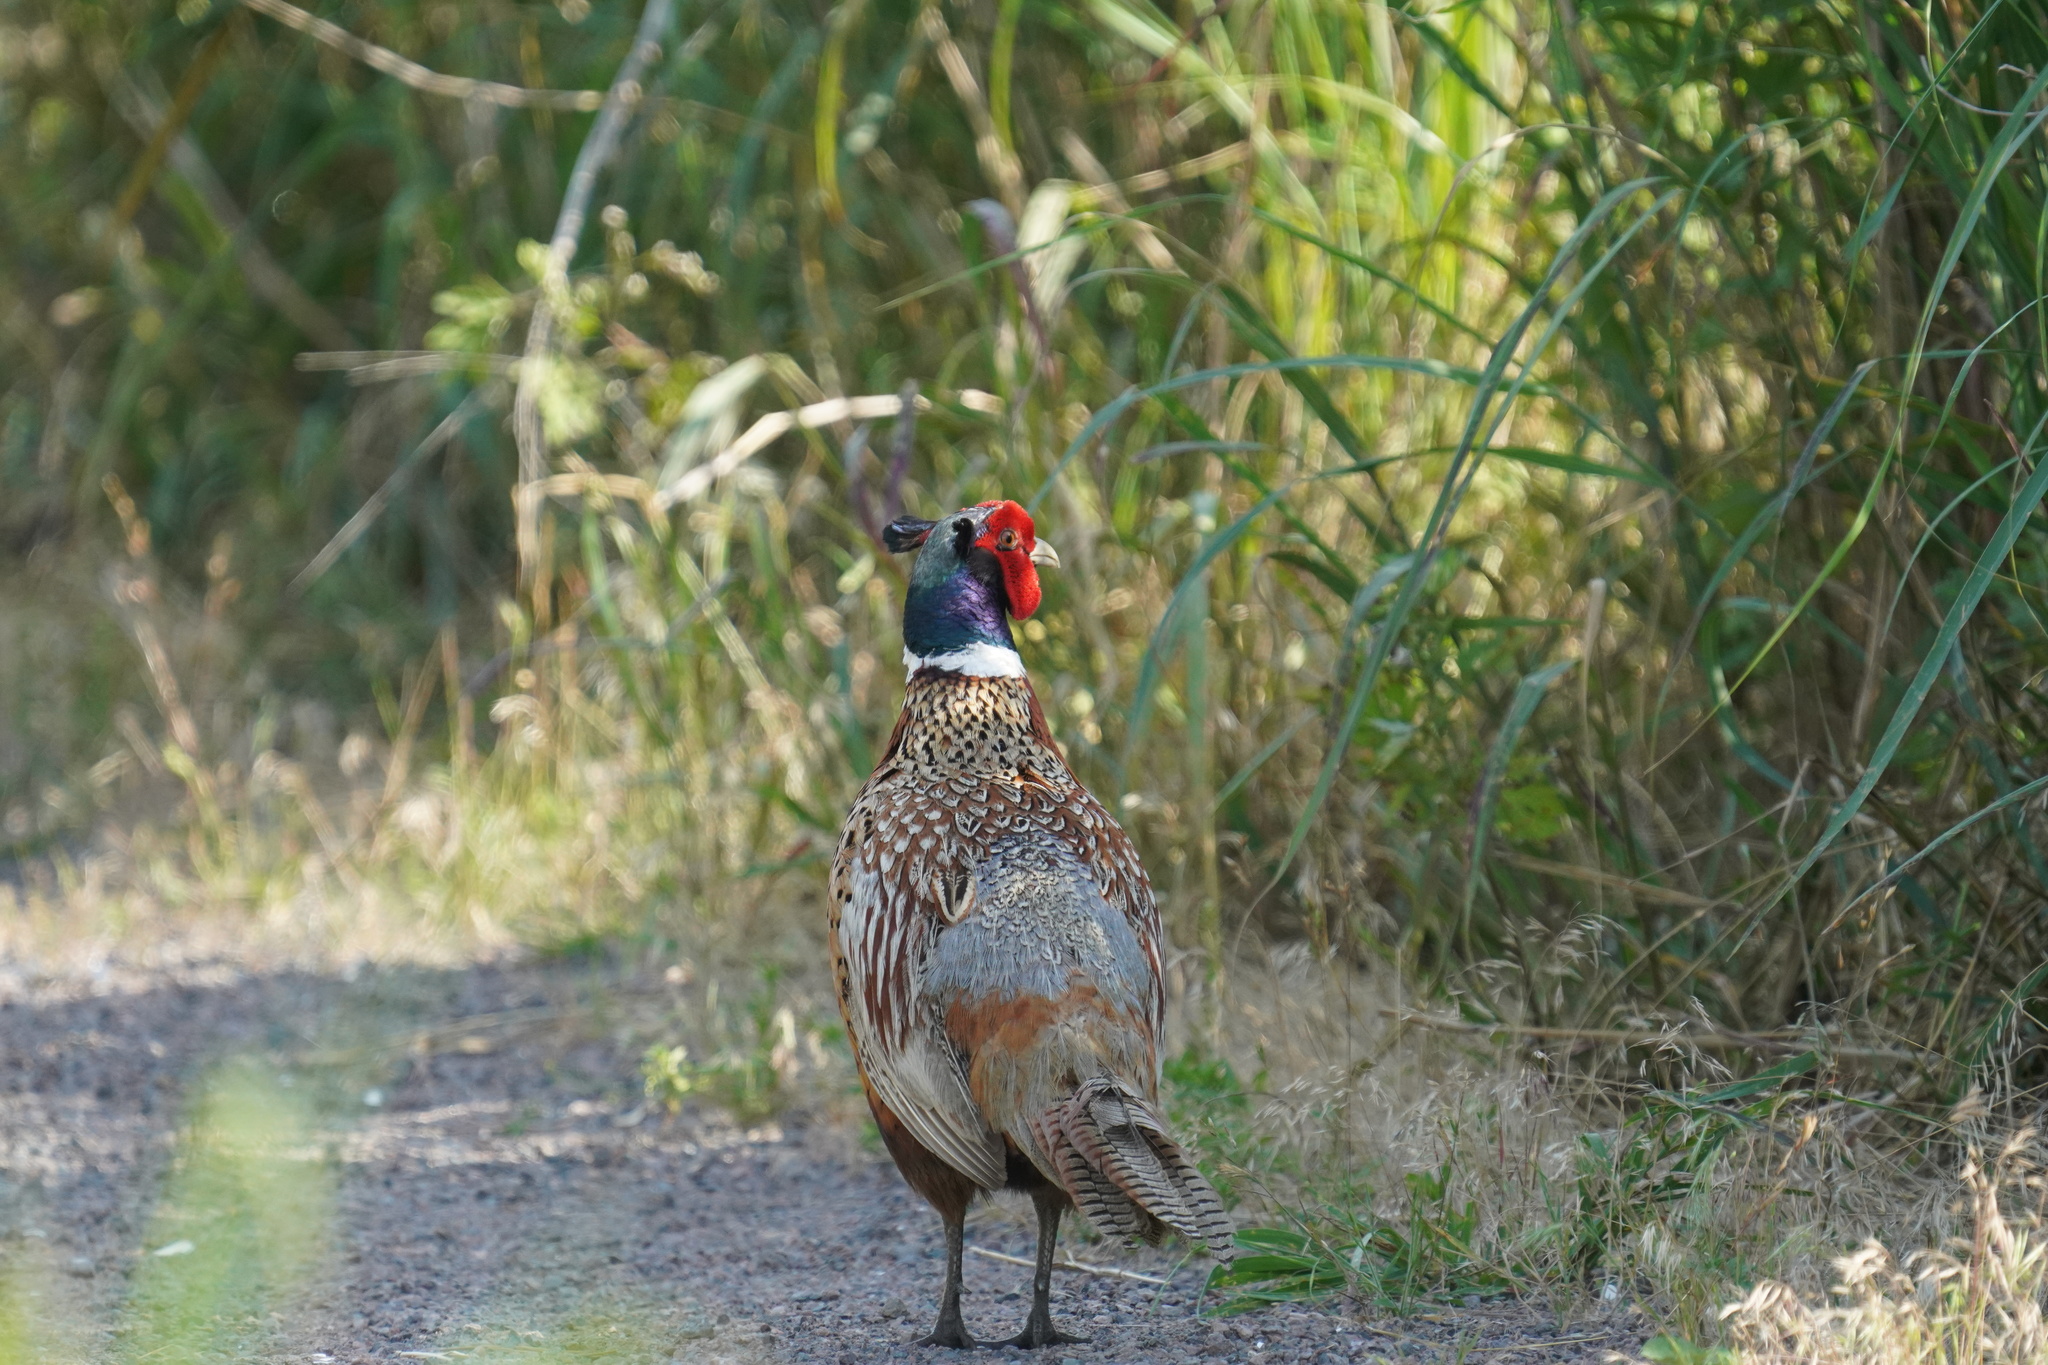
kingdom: Animalia
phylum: Chordata
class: Aves
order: Galliformes
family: Phasianidae
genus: Phasianus
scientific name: Phasianus colchicus
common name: Common pheasant
